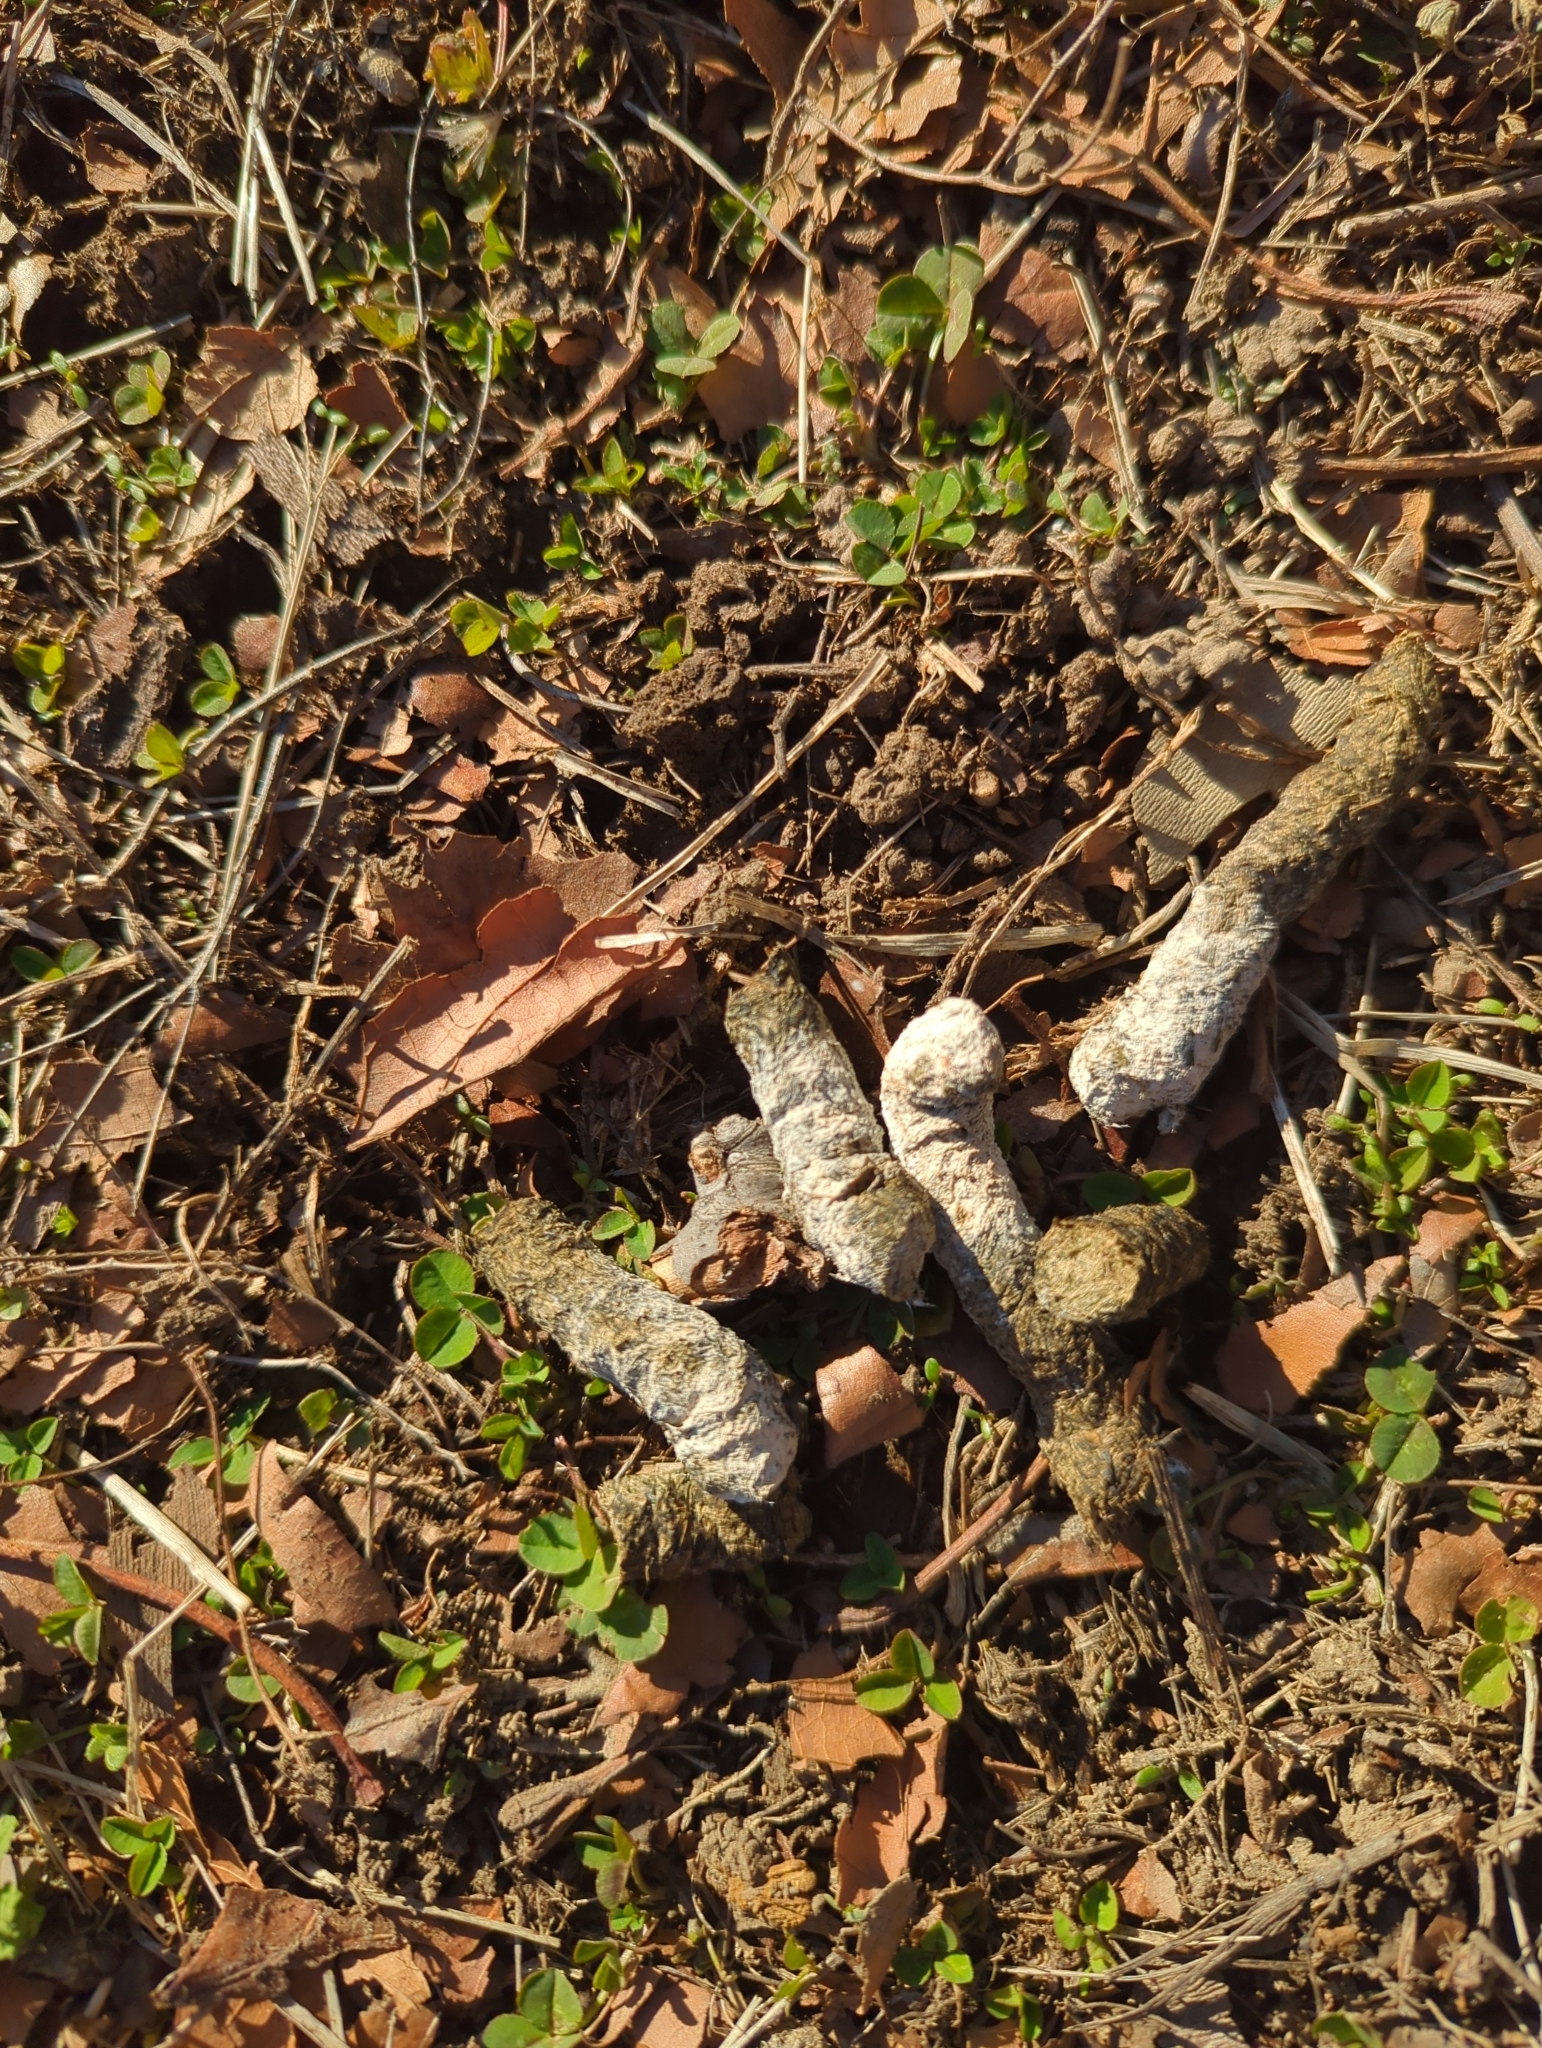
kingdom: Animalia
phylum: Chordata
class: Aves
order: Anseriformes
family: Anatidae
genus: Branta
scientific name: Branta canadensis
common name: Canada goose
